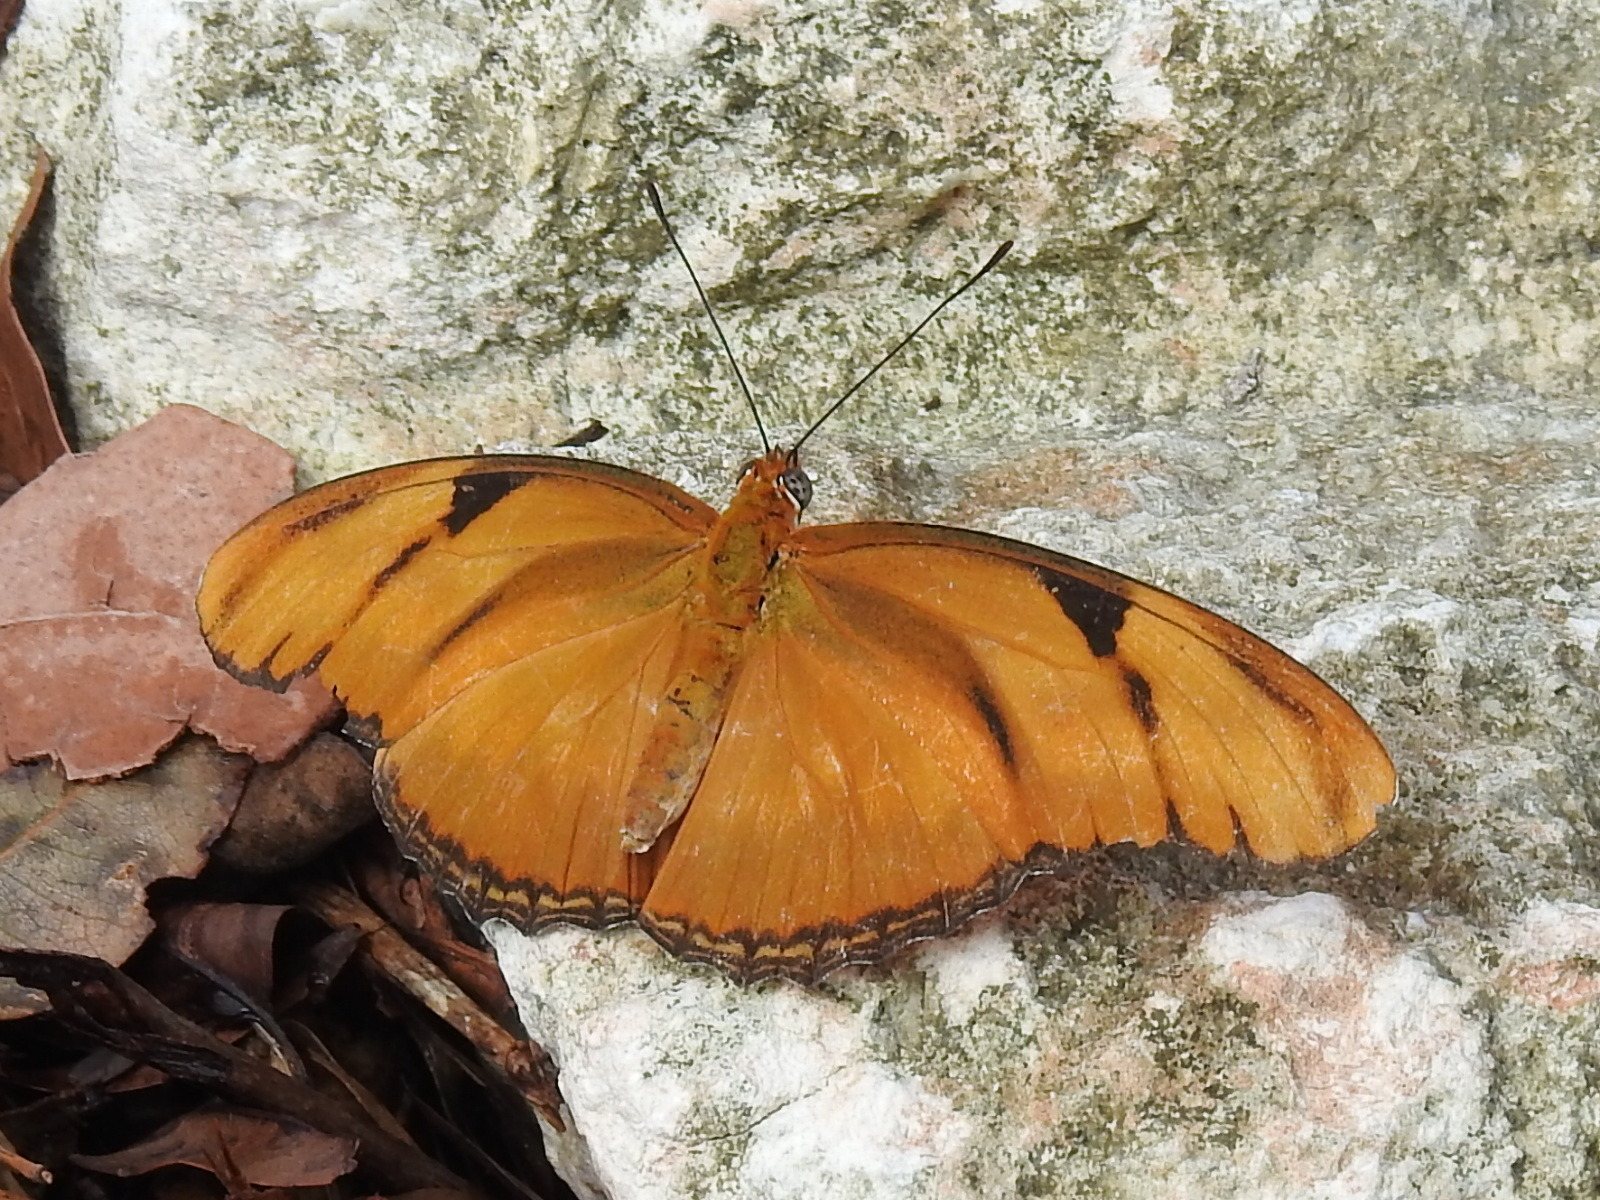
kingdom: Animalia
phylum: Arthropoda
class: Insecta
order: Lepidoptera
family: Nymphalidae
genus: Dryas
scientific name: Dryas iulia
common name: Flambeau
